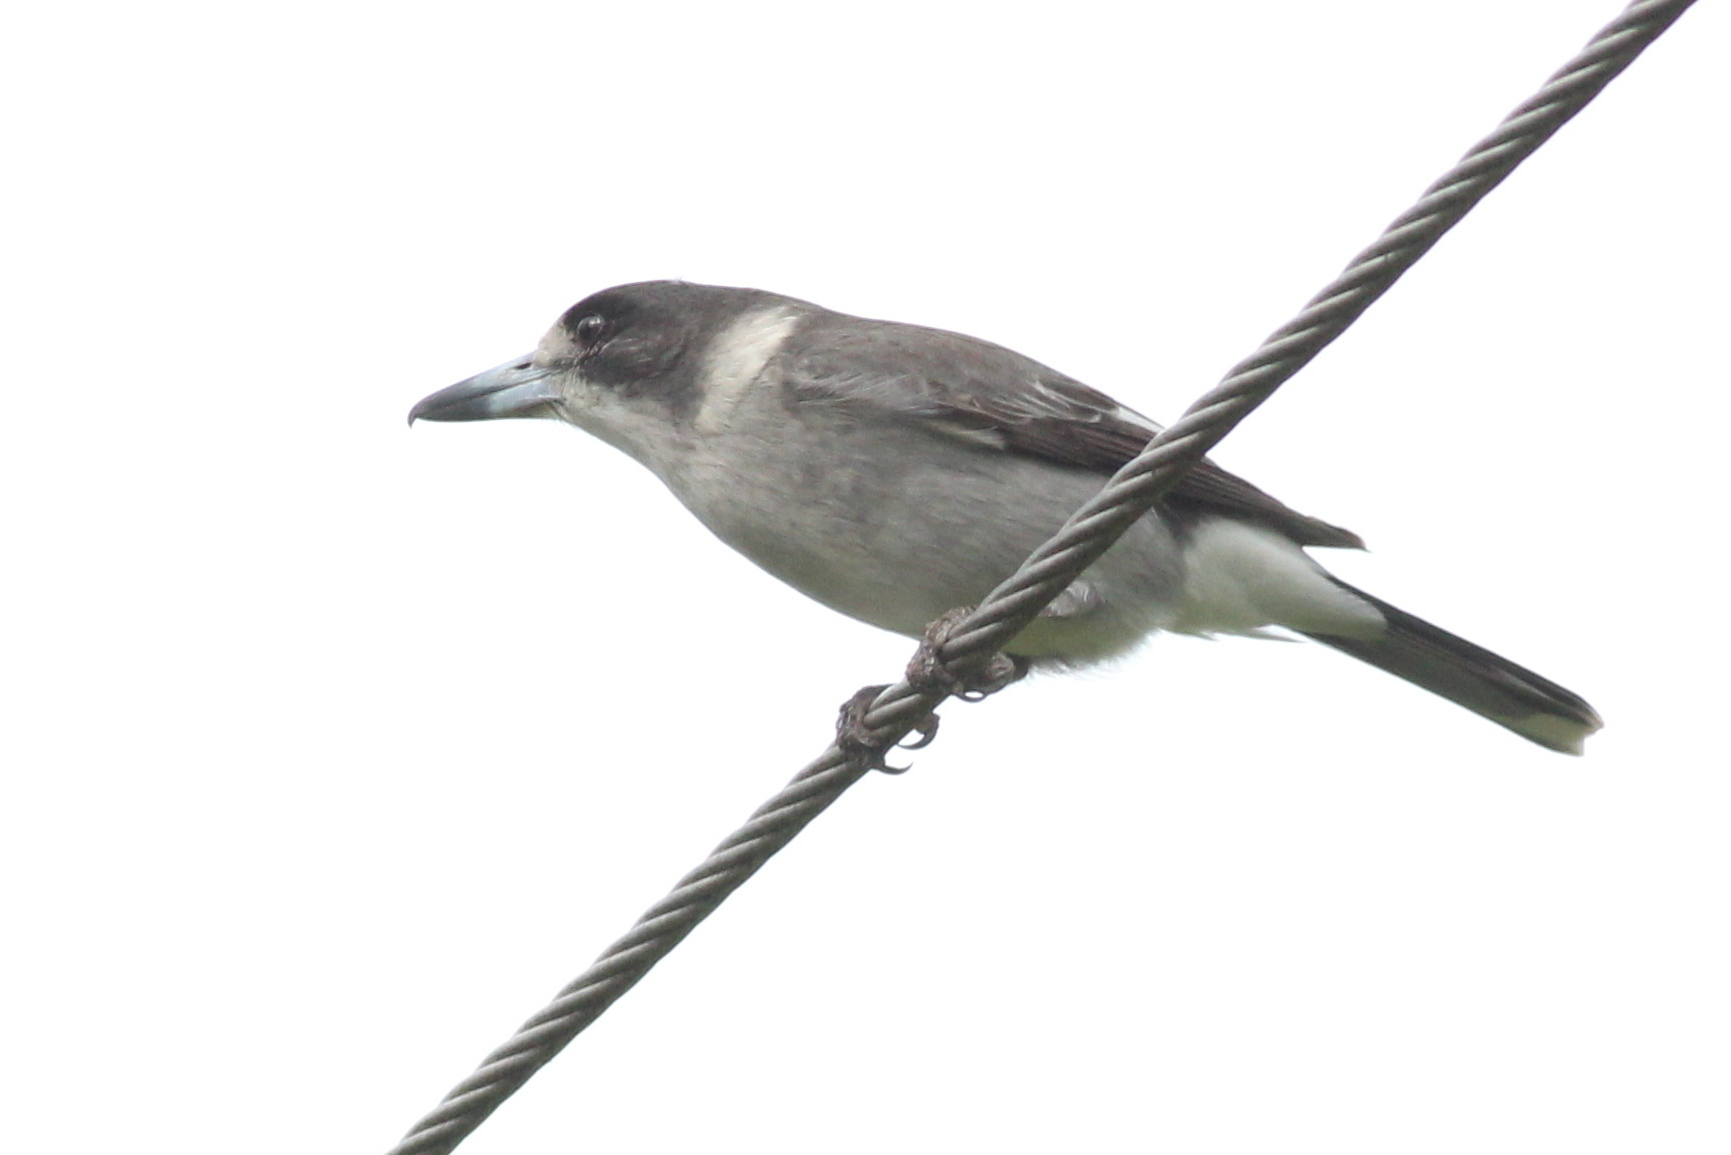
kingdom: Animalia
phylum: Chordata
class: Aves
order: Passeriformes
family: Cracticidae
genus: Cracticus
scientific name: Cracticus torquatus
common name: Grey butcherbird
